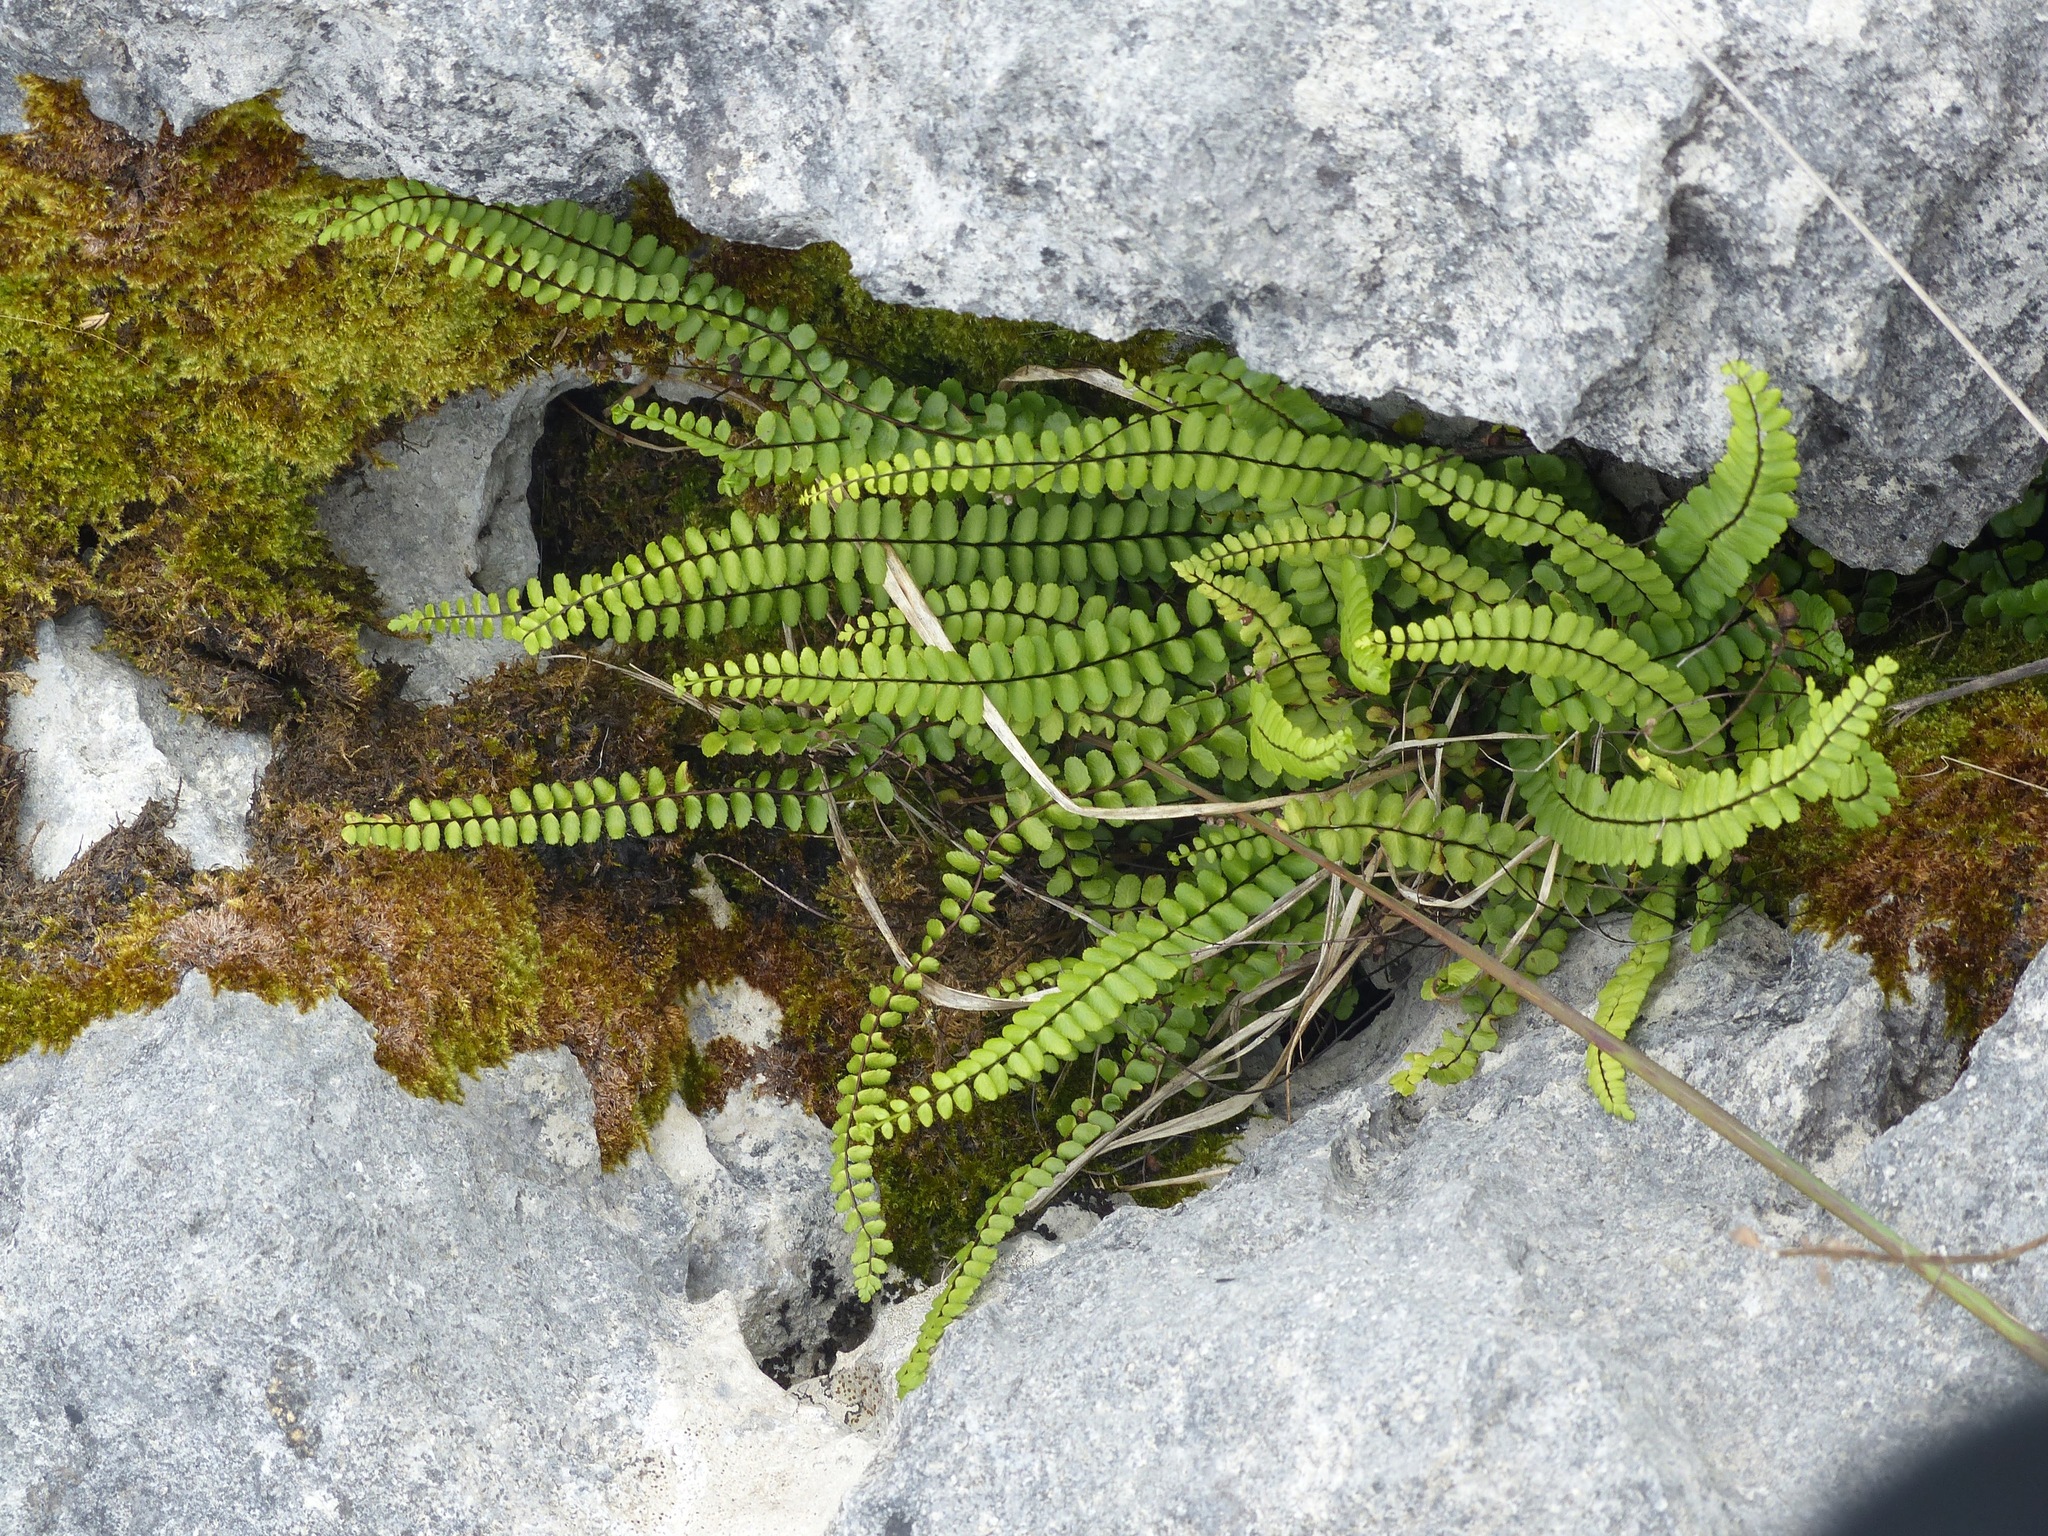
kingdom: Plantae
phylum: Tracheophyta
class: Polypodiopsida
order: Polypodiales
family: Aspleniaceae
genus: Asplenium
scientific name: Asplenium trichomanes
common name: Maidenhair spleenwort
